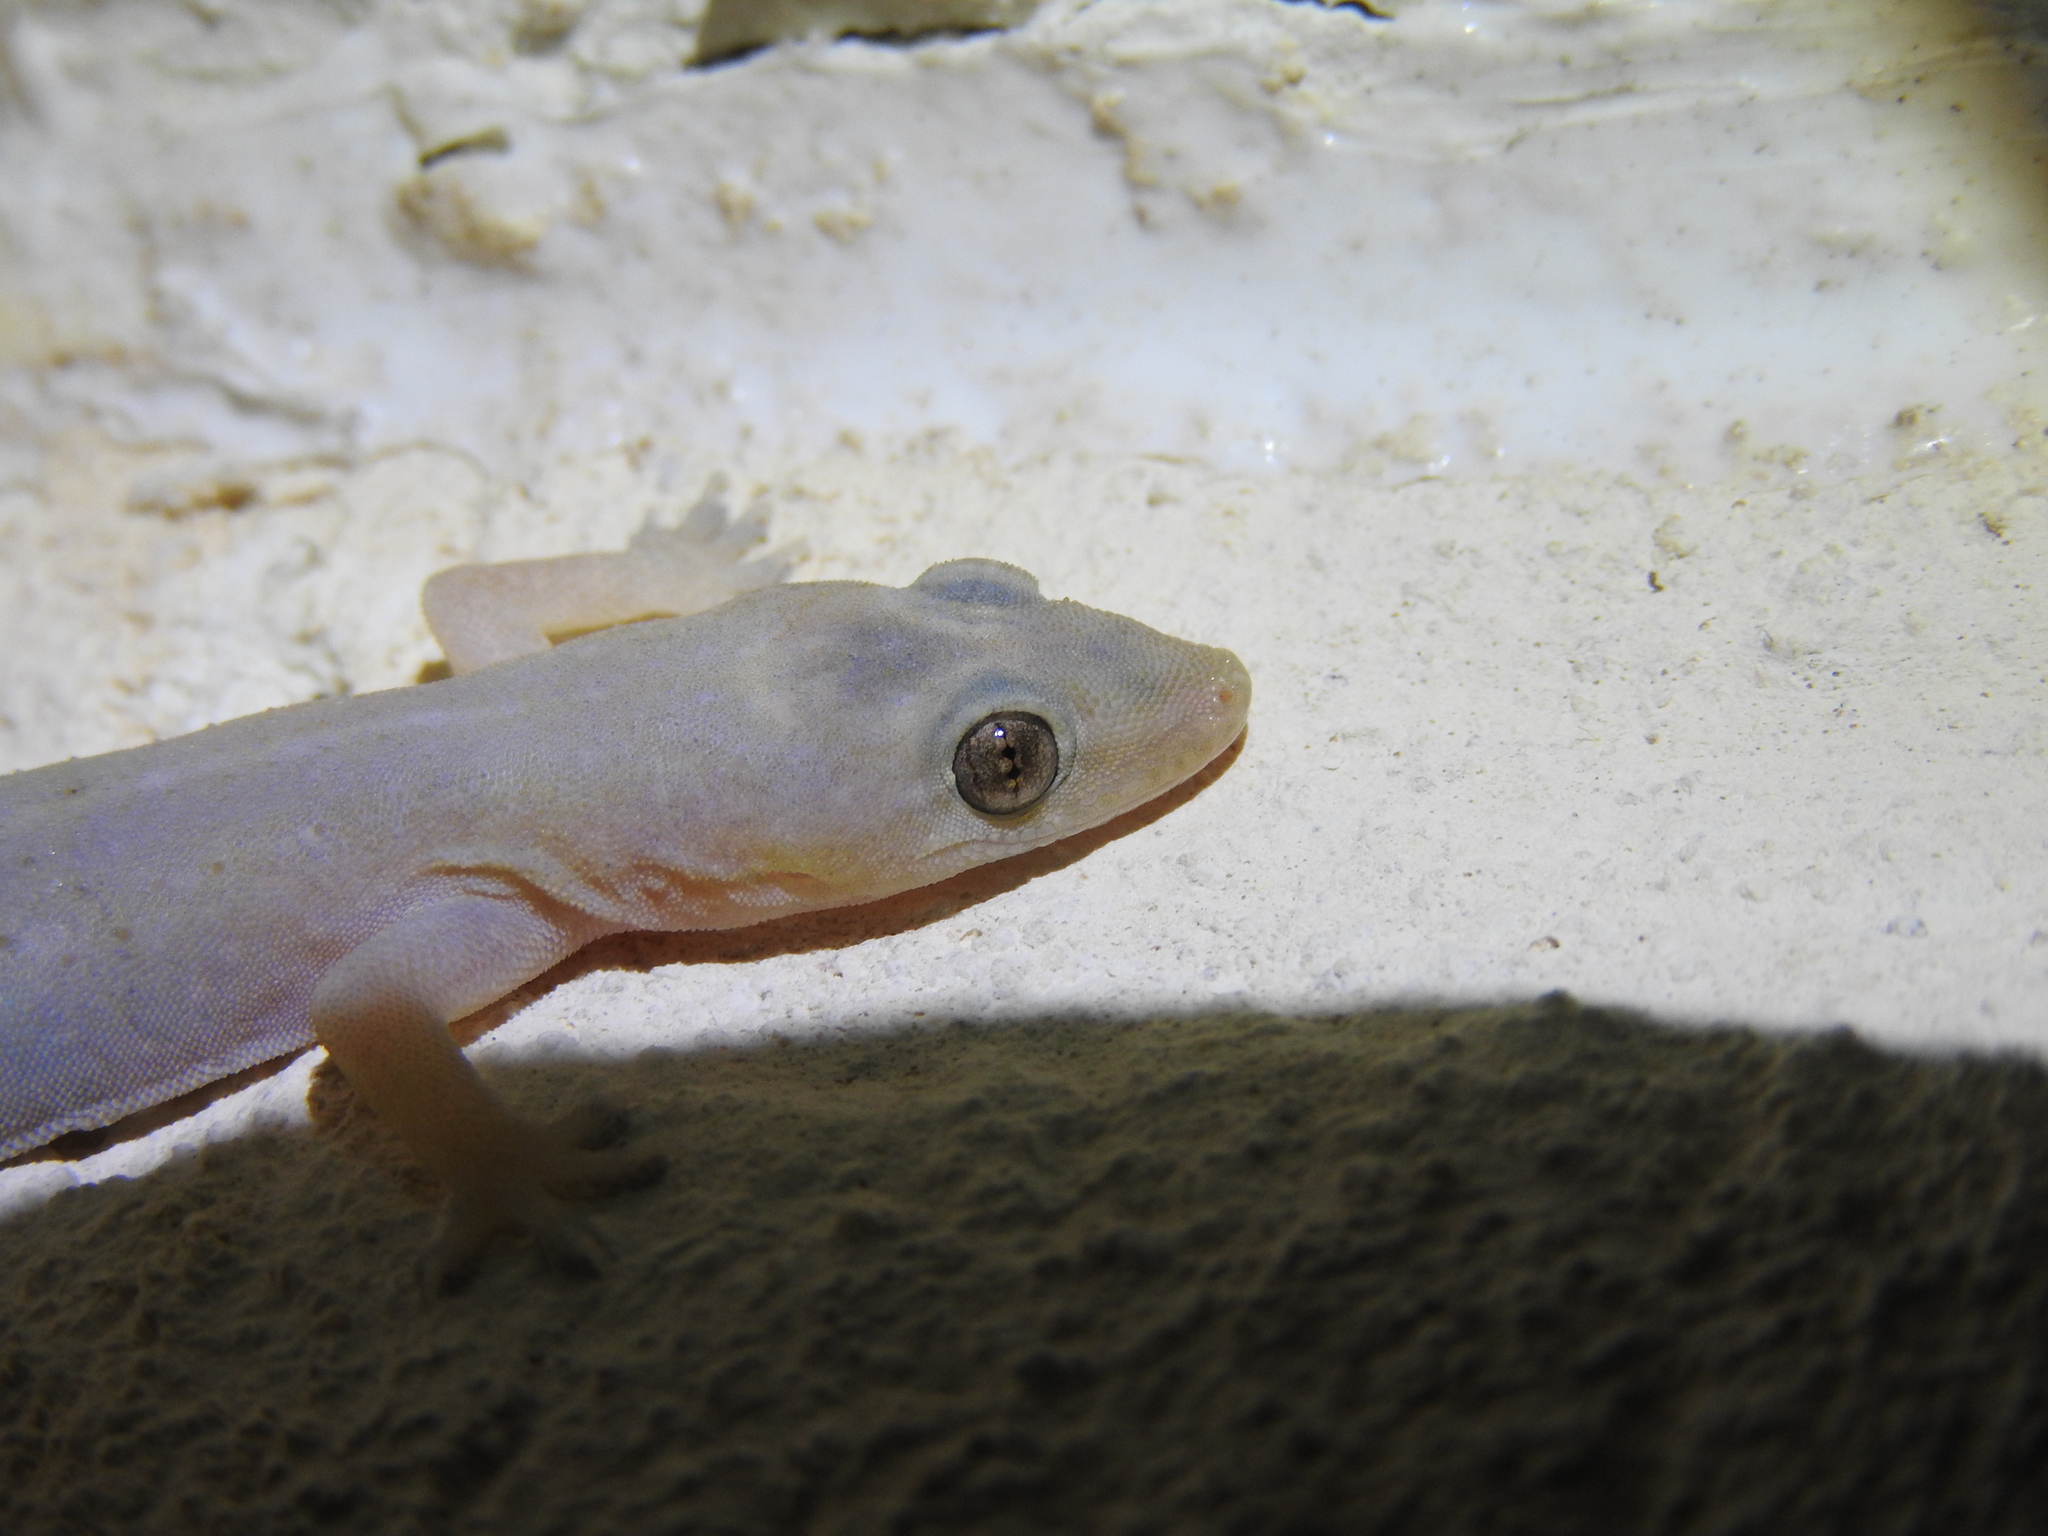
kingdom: Animalia
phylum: Chordata
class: Squamata
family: Gekkonidae
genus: Hemidactylus
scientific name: Hemidactylus frenatus
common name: Common house gecko
